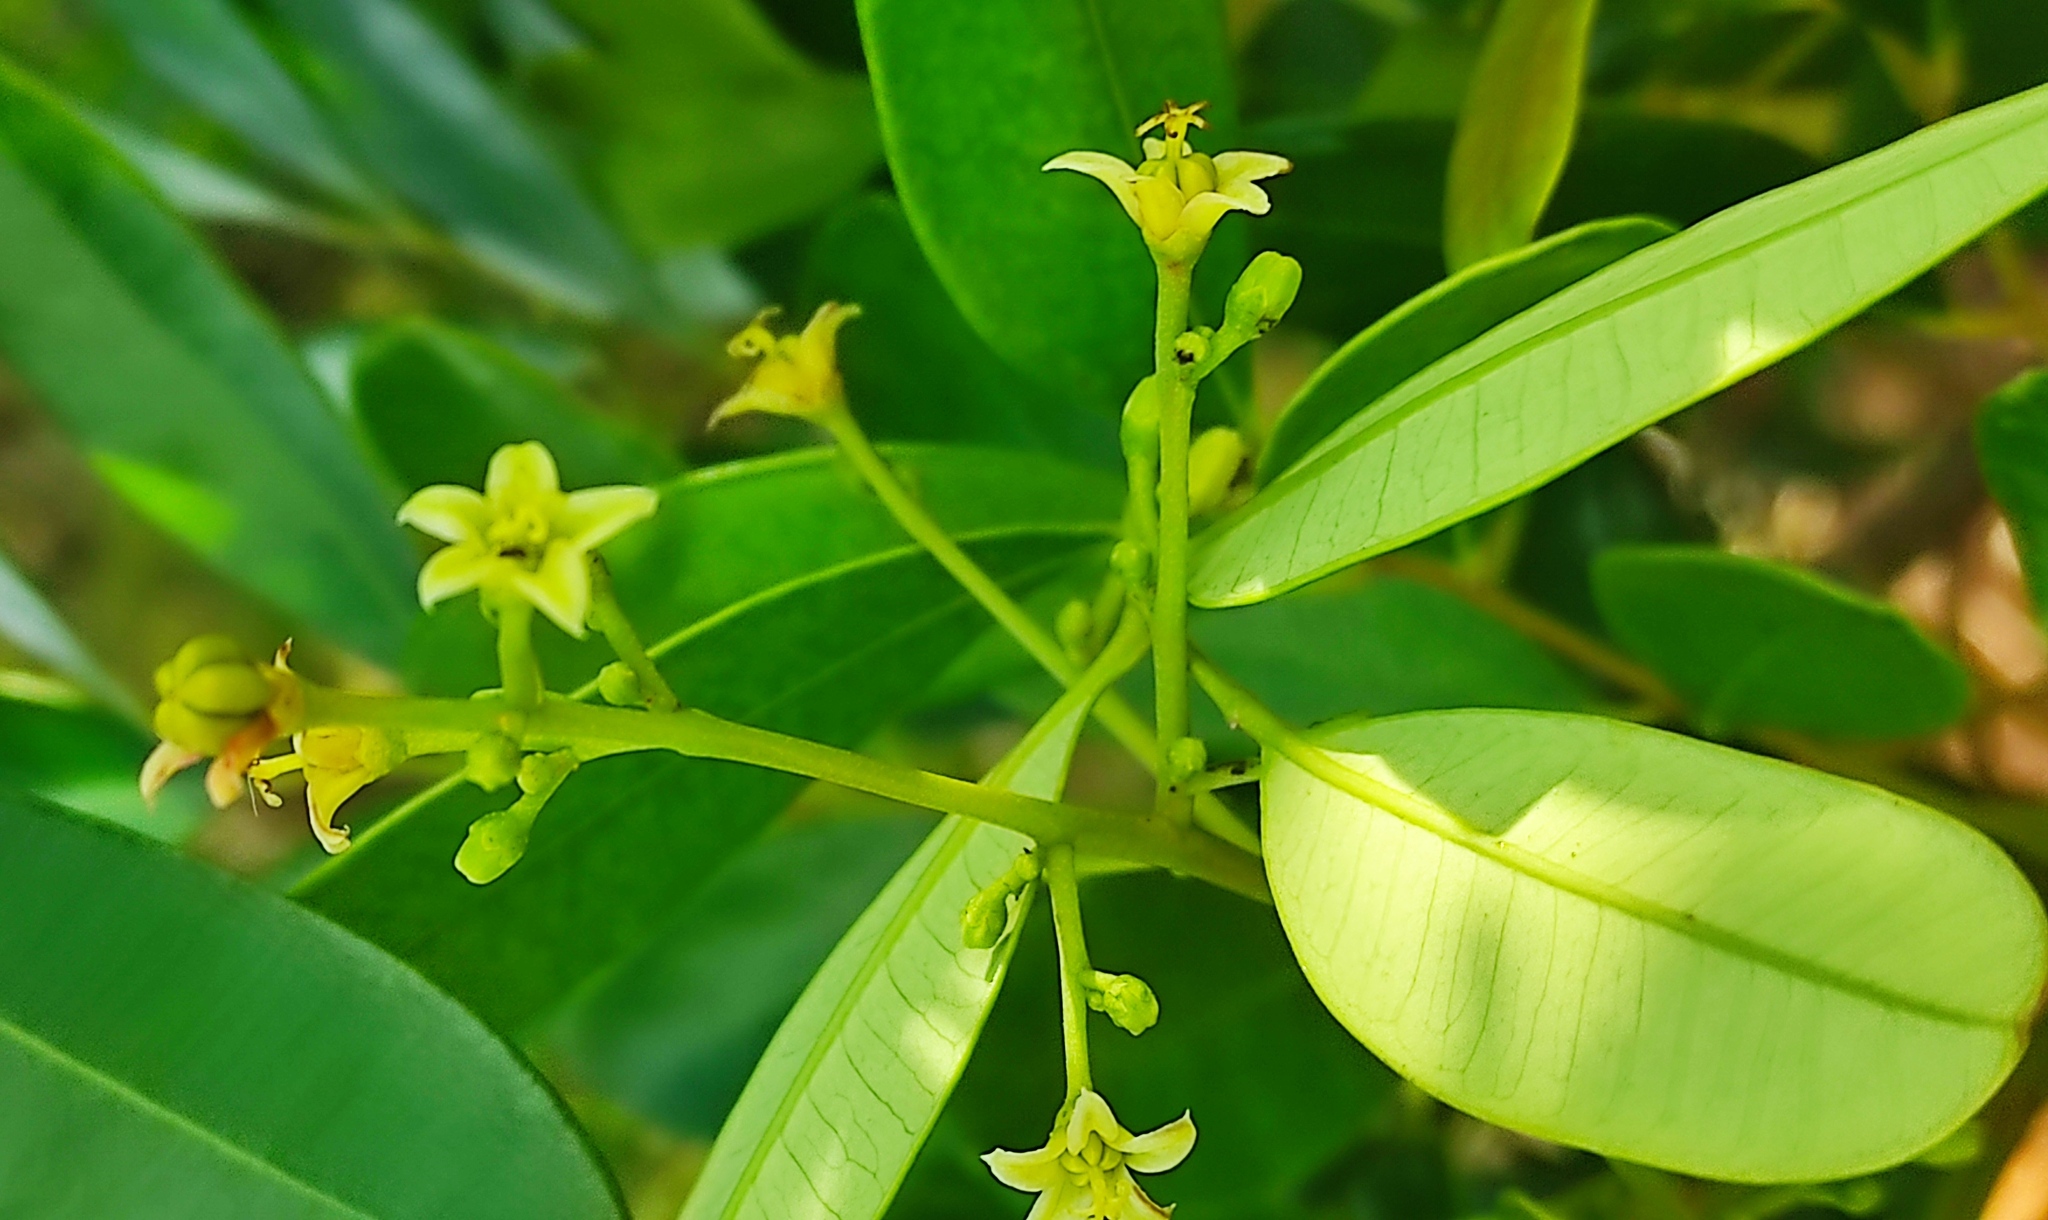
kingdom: Plantae
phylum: Tracheophyta
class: Magnoliopsida
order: Sapindales
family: Simaroubaceae
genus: Simarouba
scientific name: Simarouba berteroana
